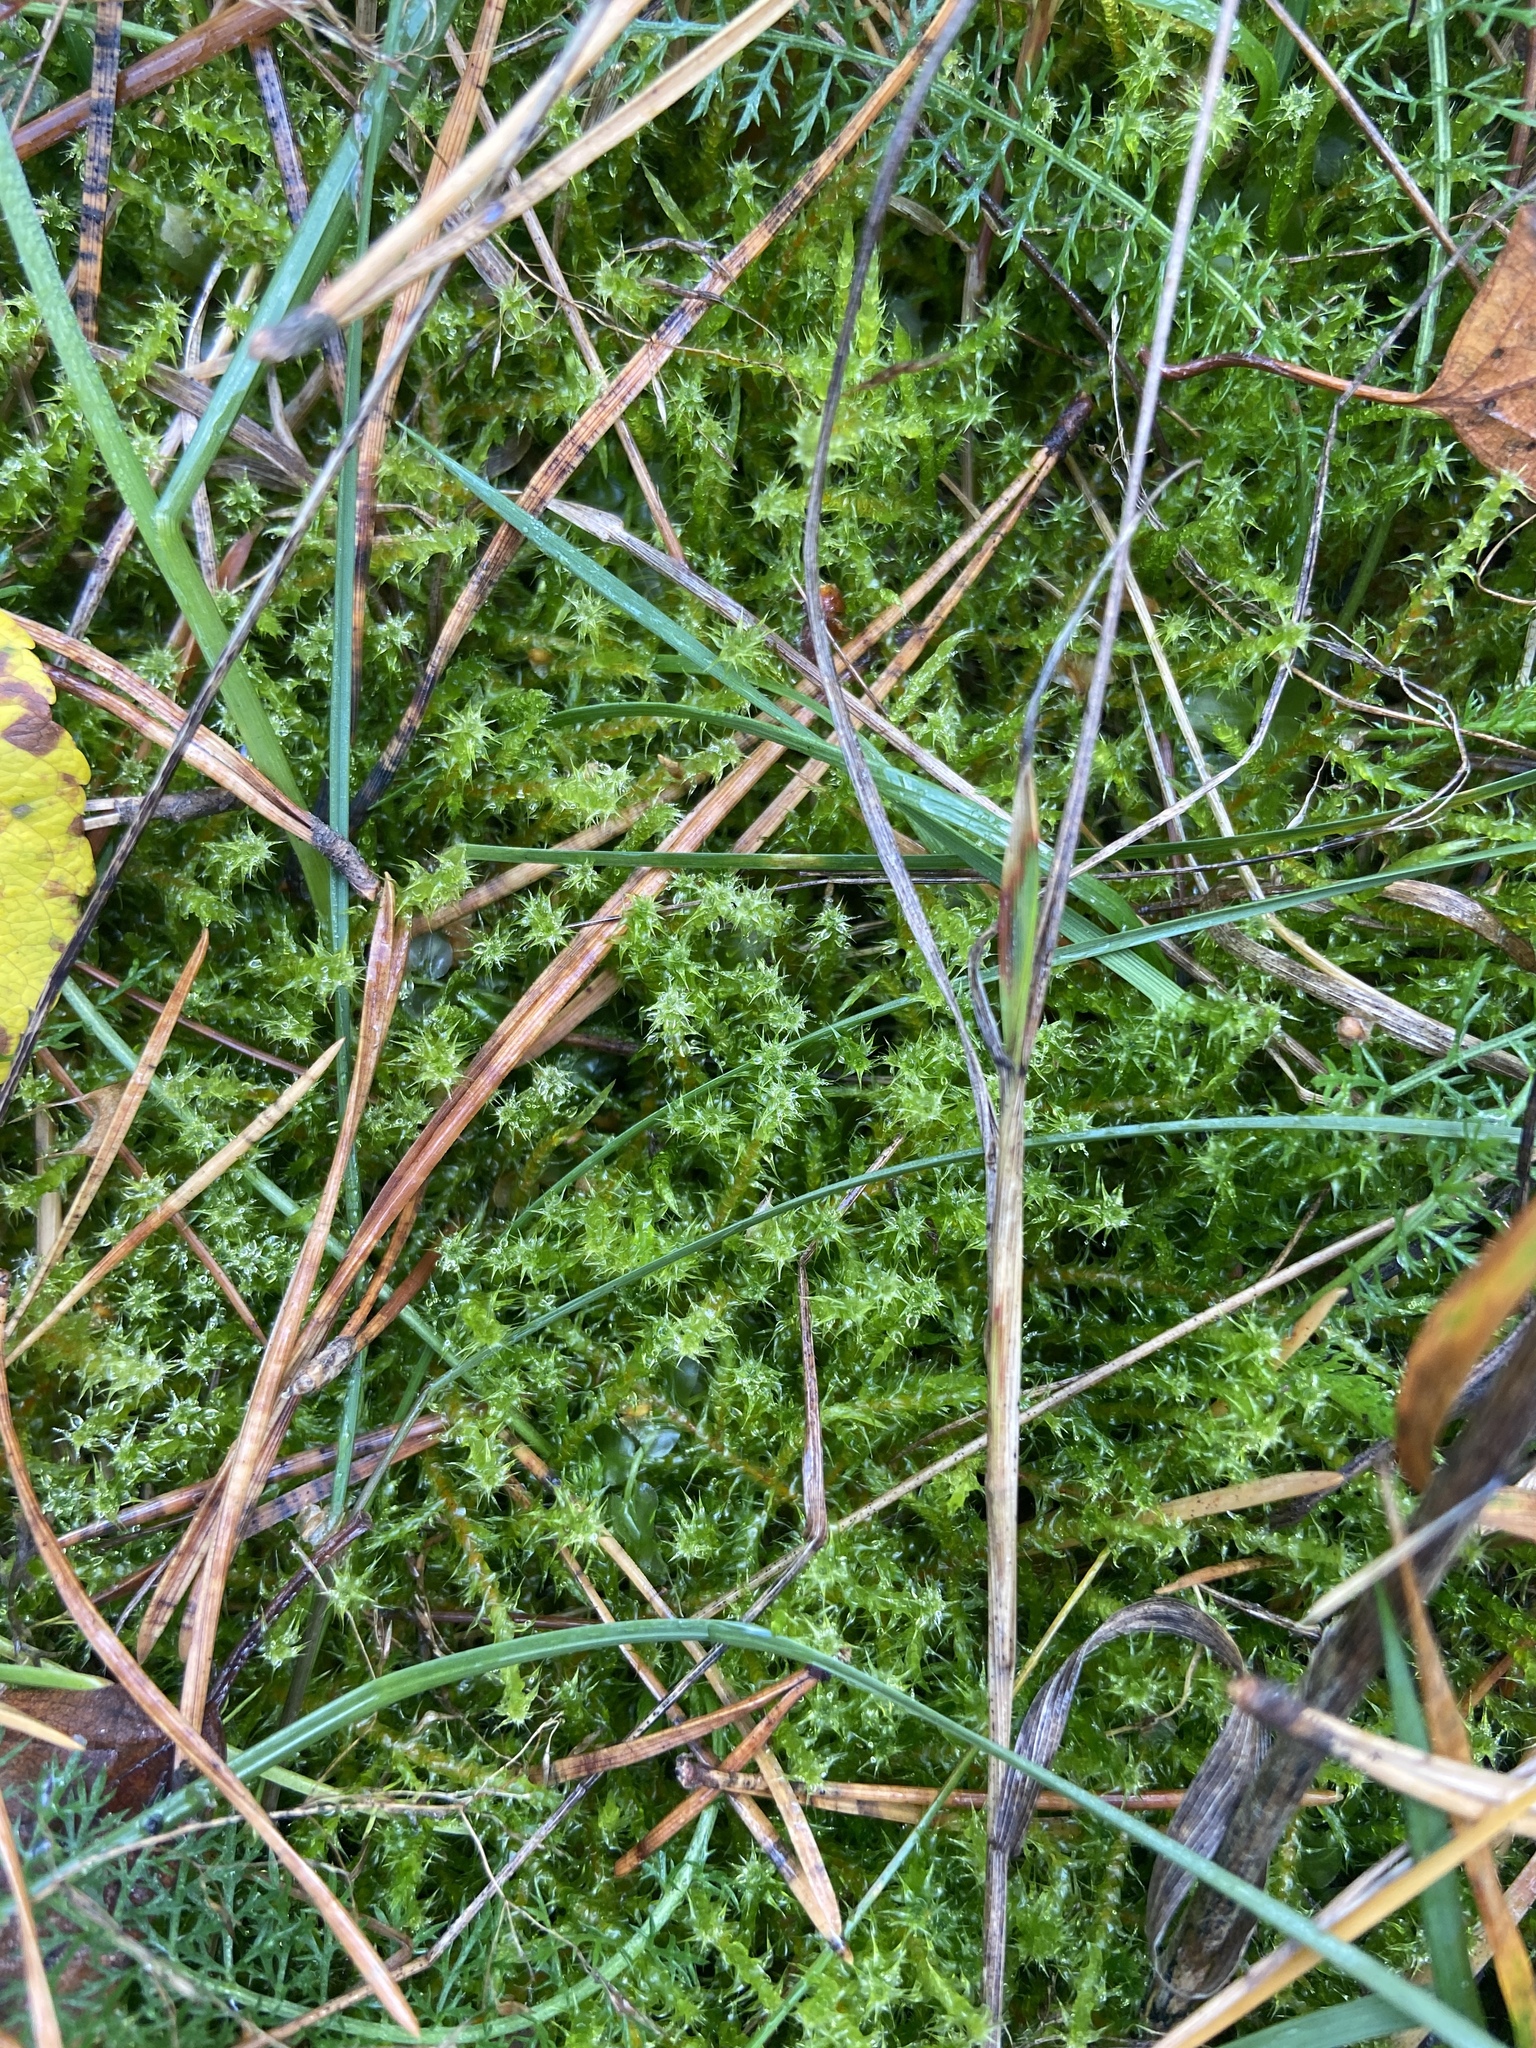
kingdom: Plantae
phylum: Bryophyta
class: Bryopsida
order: Hypnales
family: Hylocomiaceae
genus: Rhytidiadelphus
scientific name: Rhytidiadelphus squarrosus
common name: Springy turf-moss
